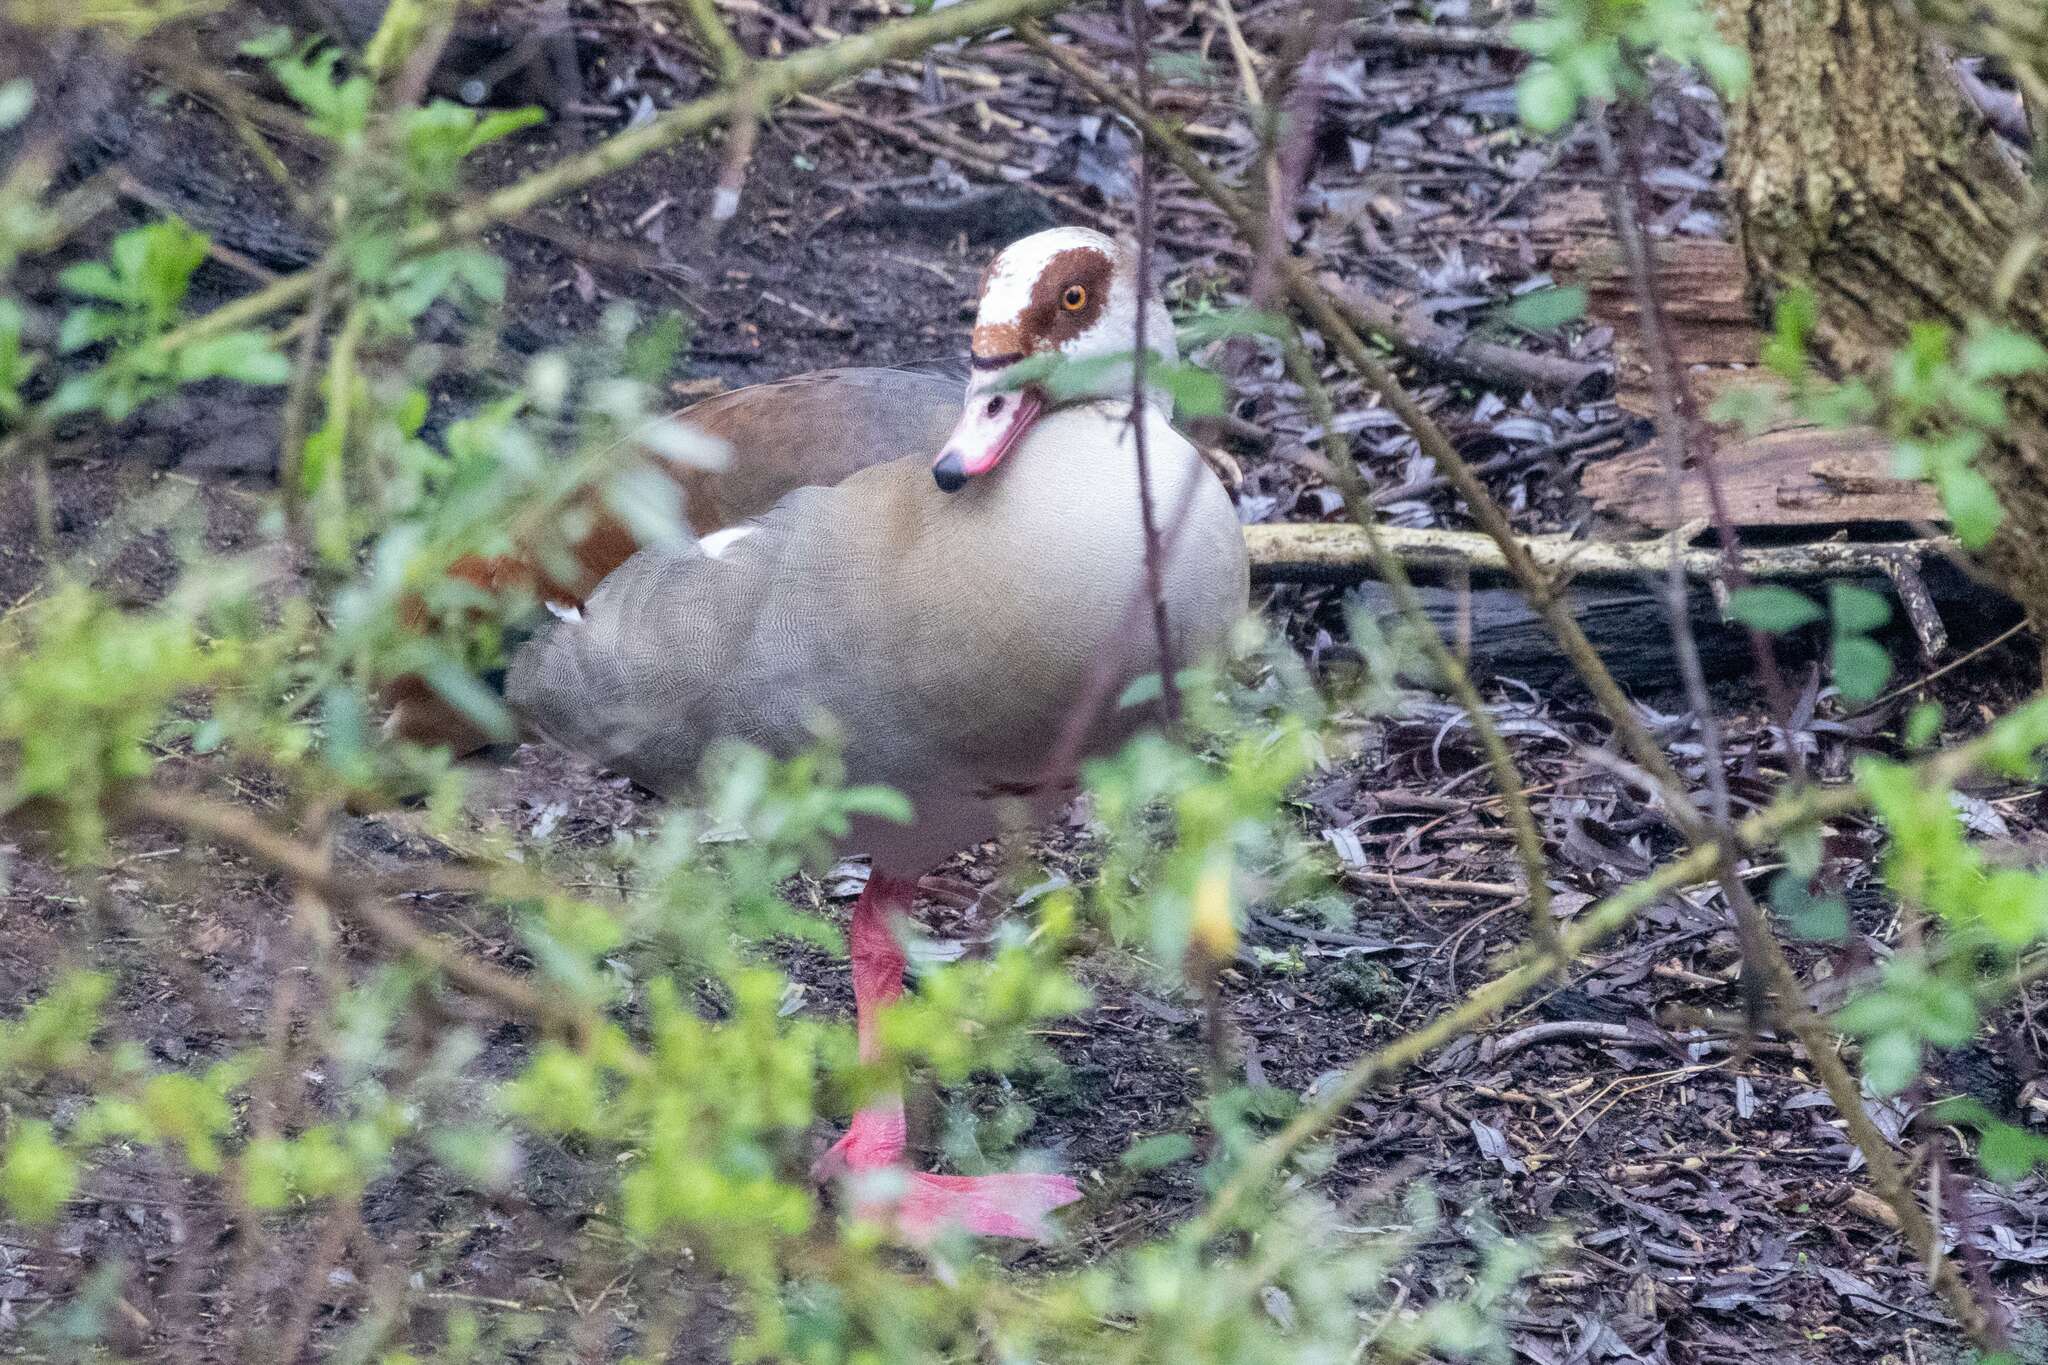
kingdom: Animalia
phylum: Chordata
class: Aves
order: Anseriformes
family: Anatidae
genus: Alopochen
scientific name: Alopochen aegyptiaca
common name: Egyptian goose
